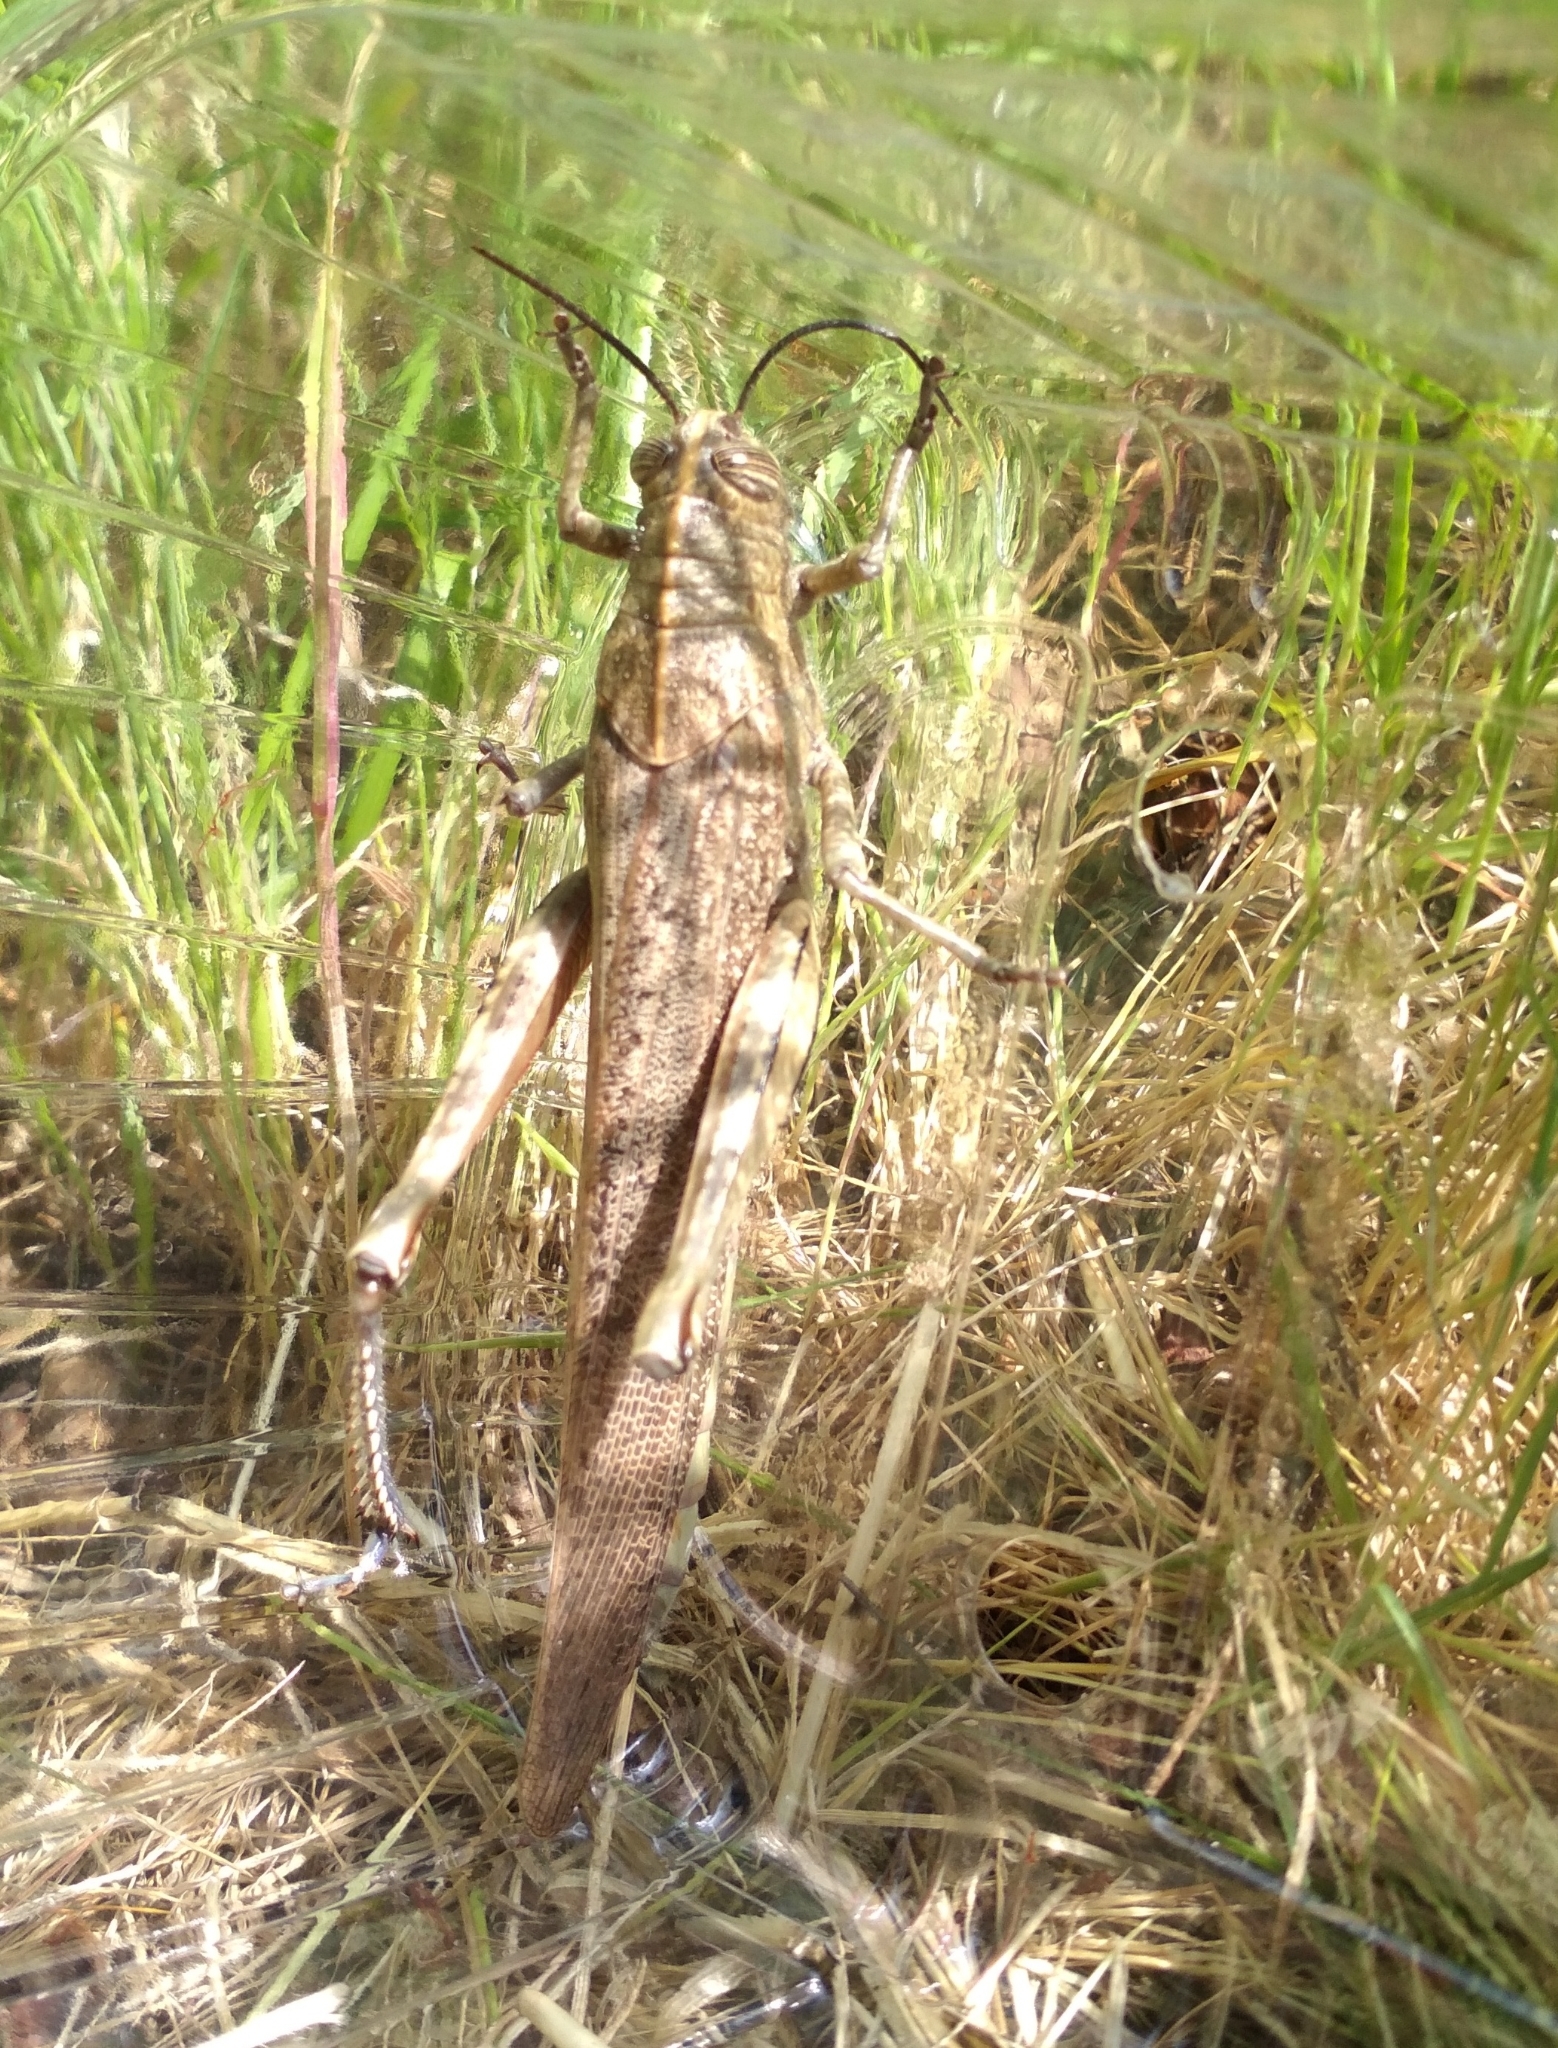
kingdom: Animalia
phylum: Arthropoda
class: Insecta
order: Orthoptera
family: Acrididae
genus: Anacridium
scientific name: Anacridium aegyptium
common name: Egyptian grasshopper
